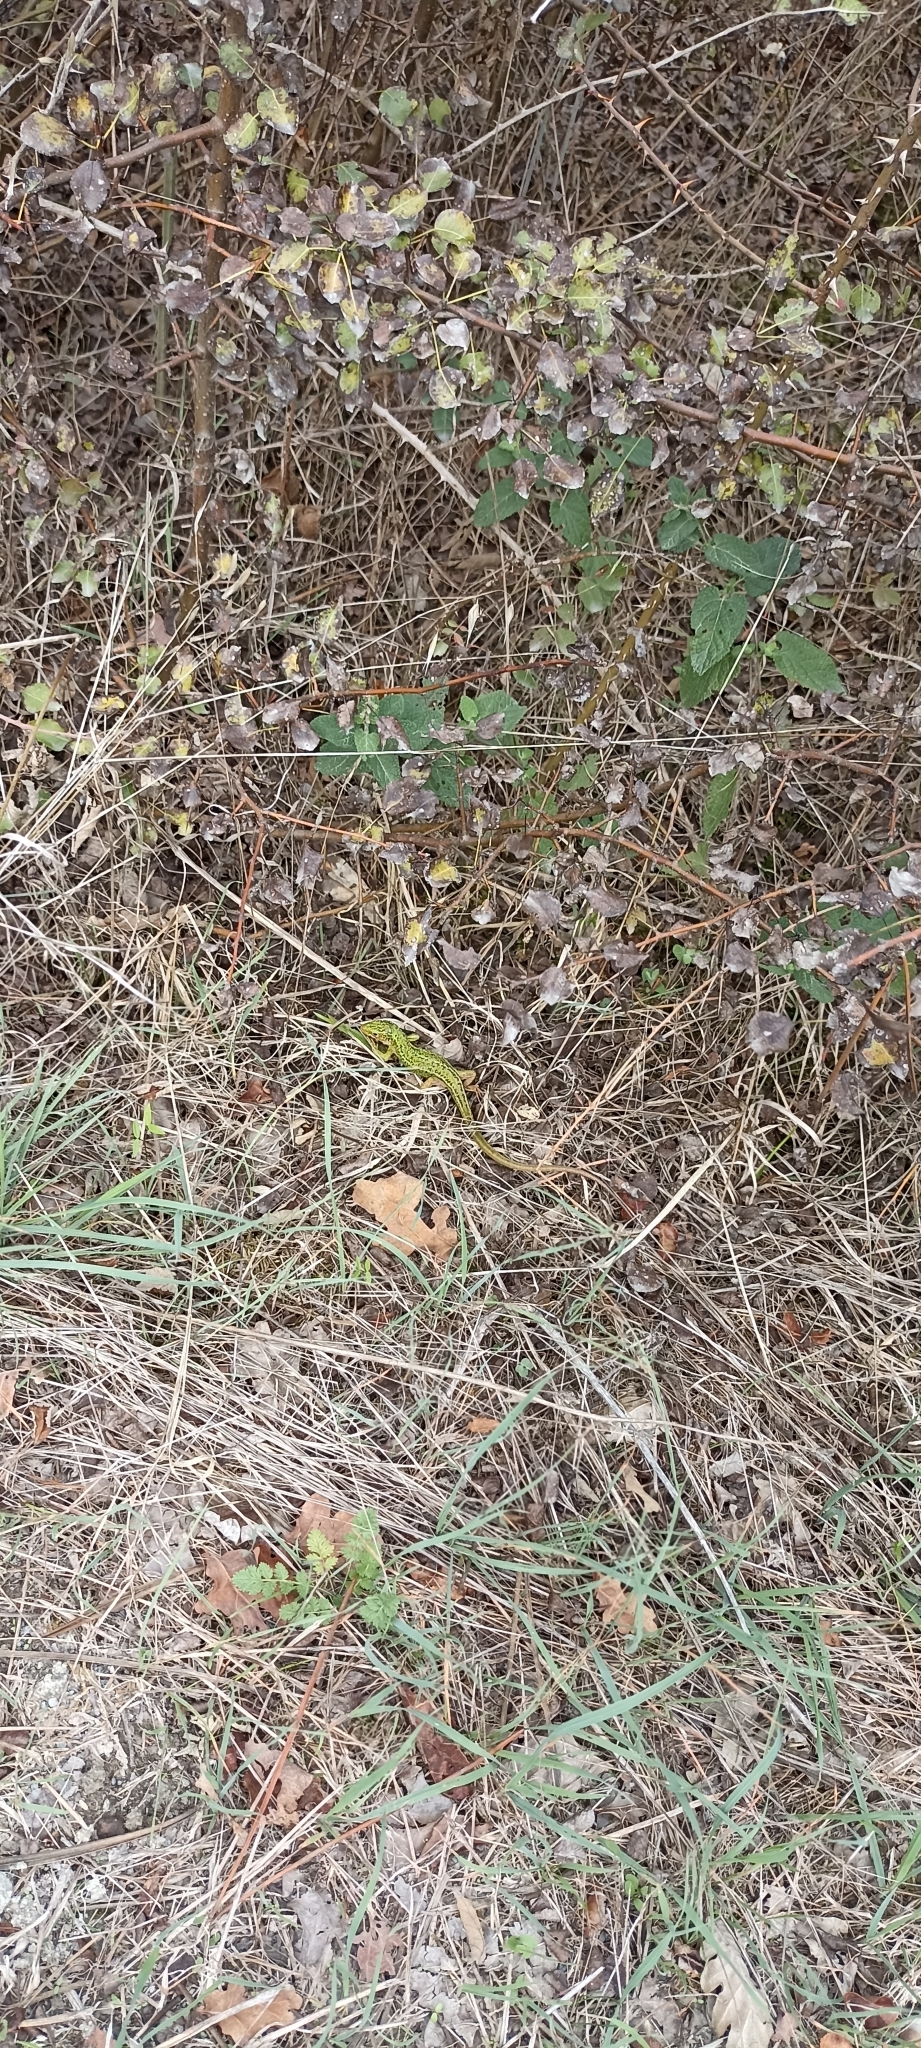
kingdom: Animalia
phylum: Chordata
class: Squamata
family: Lacertidae
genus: Lacerta
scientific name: Lacerta bilineata
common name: Western green lizard
